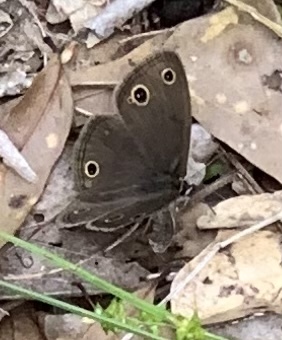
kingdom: Animalia
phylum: Arthropoda
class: Insecta
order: Lepidoptera
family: Nymphalidae
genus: Euptychia
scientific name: Euptychia cymela
